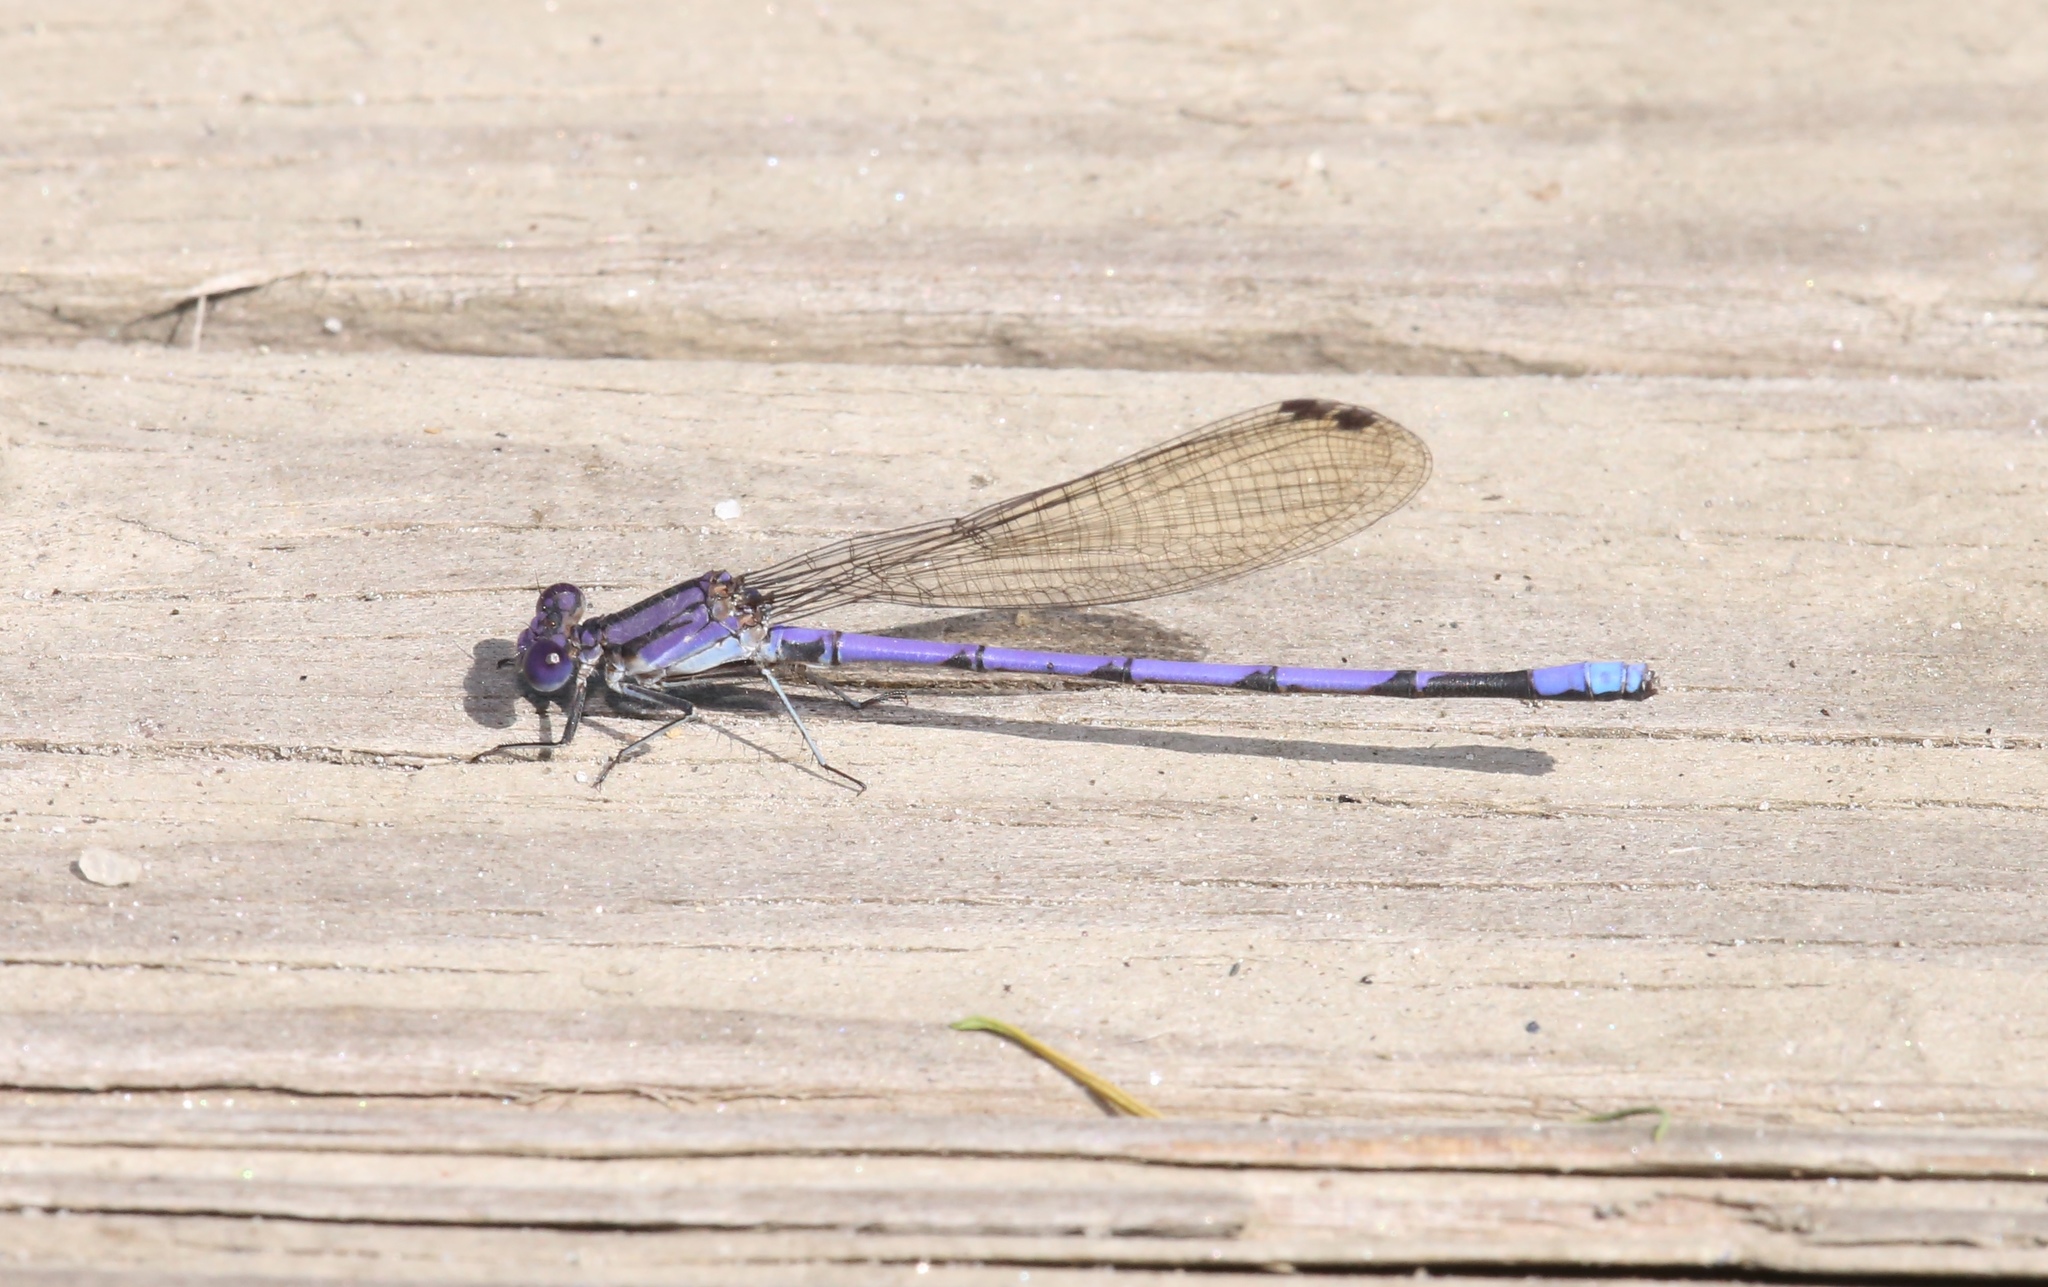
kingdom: Animalia
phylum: Arthropoda
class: Insecta
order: Odonata
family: Coenagrionidae
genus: Argia
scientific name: Argia fumipennis
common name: Variable dancer
